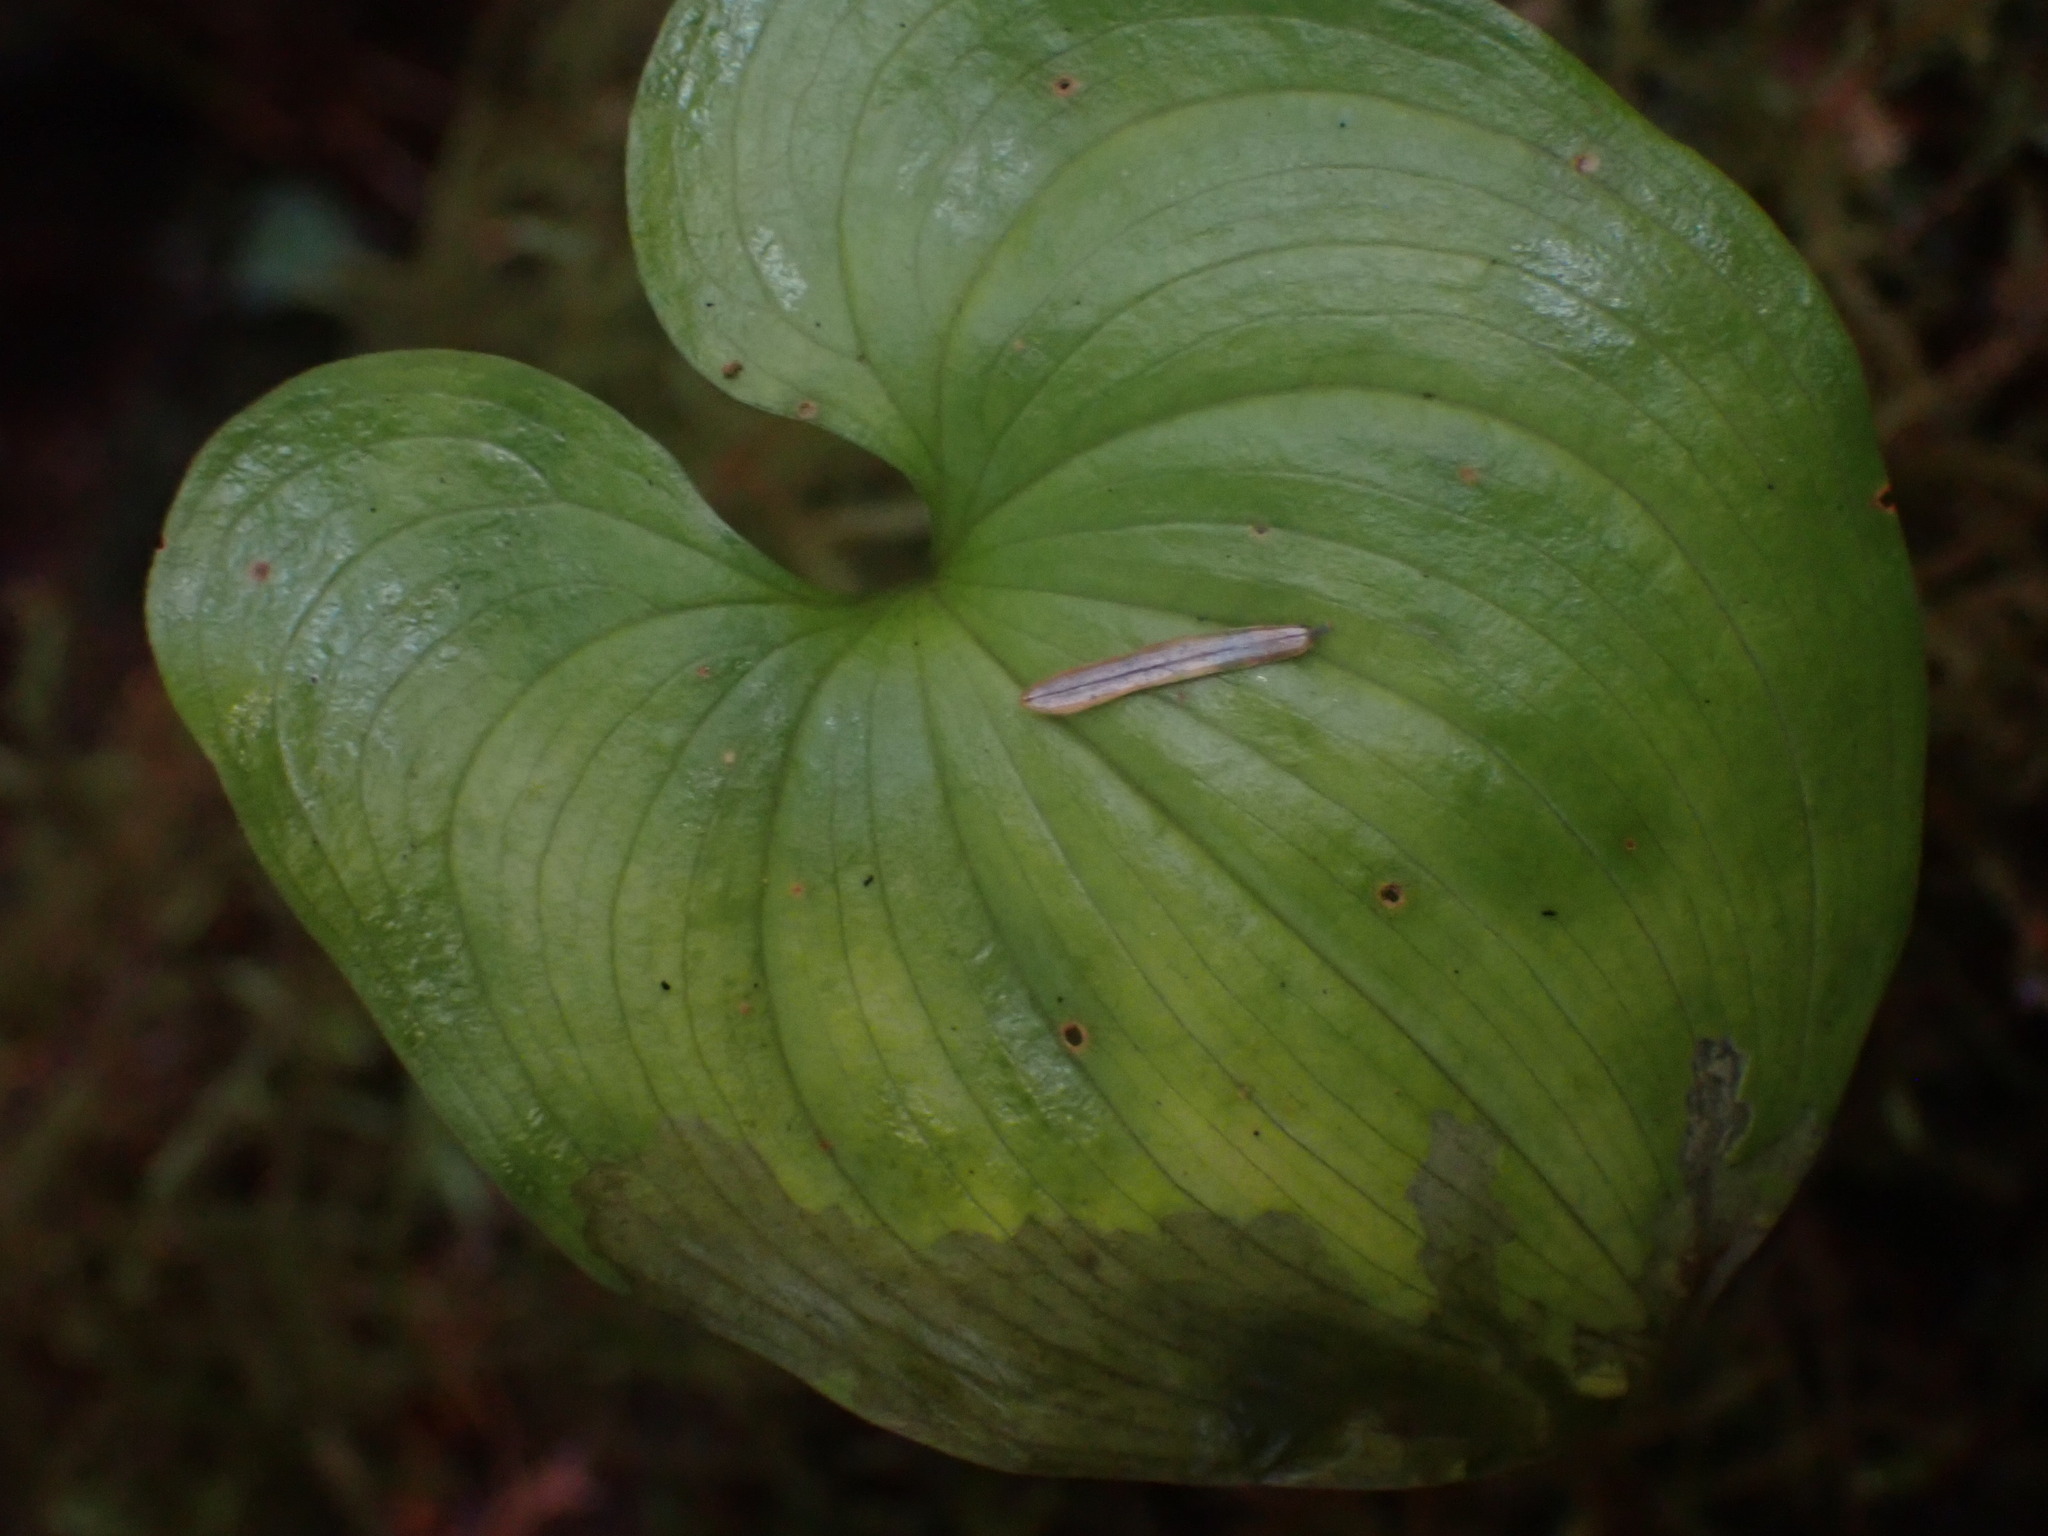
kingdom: Plantae
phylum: Tracheophyta
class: Liliopsida
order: Asparagales
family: Asparagaceae
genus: Maianthemum
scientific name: Maianthemum dilatatum
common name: False lily-of-the-valley
